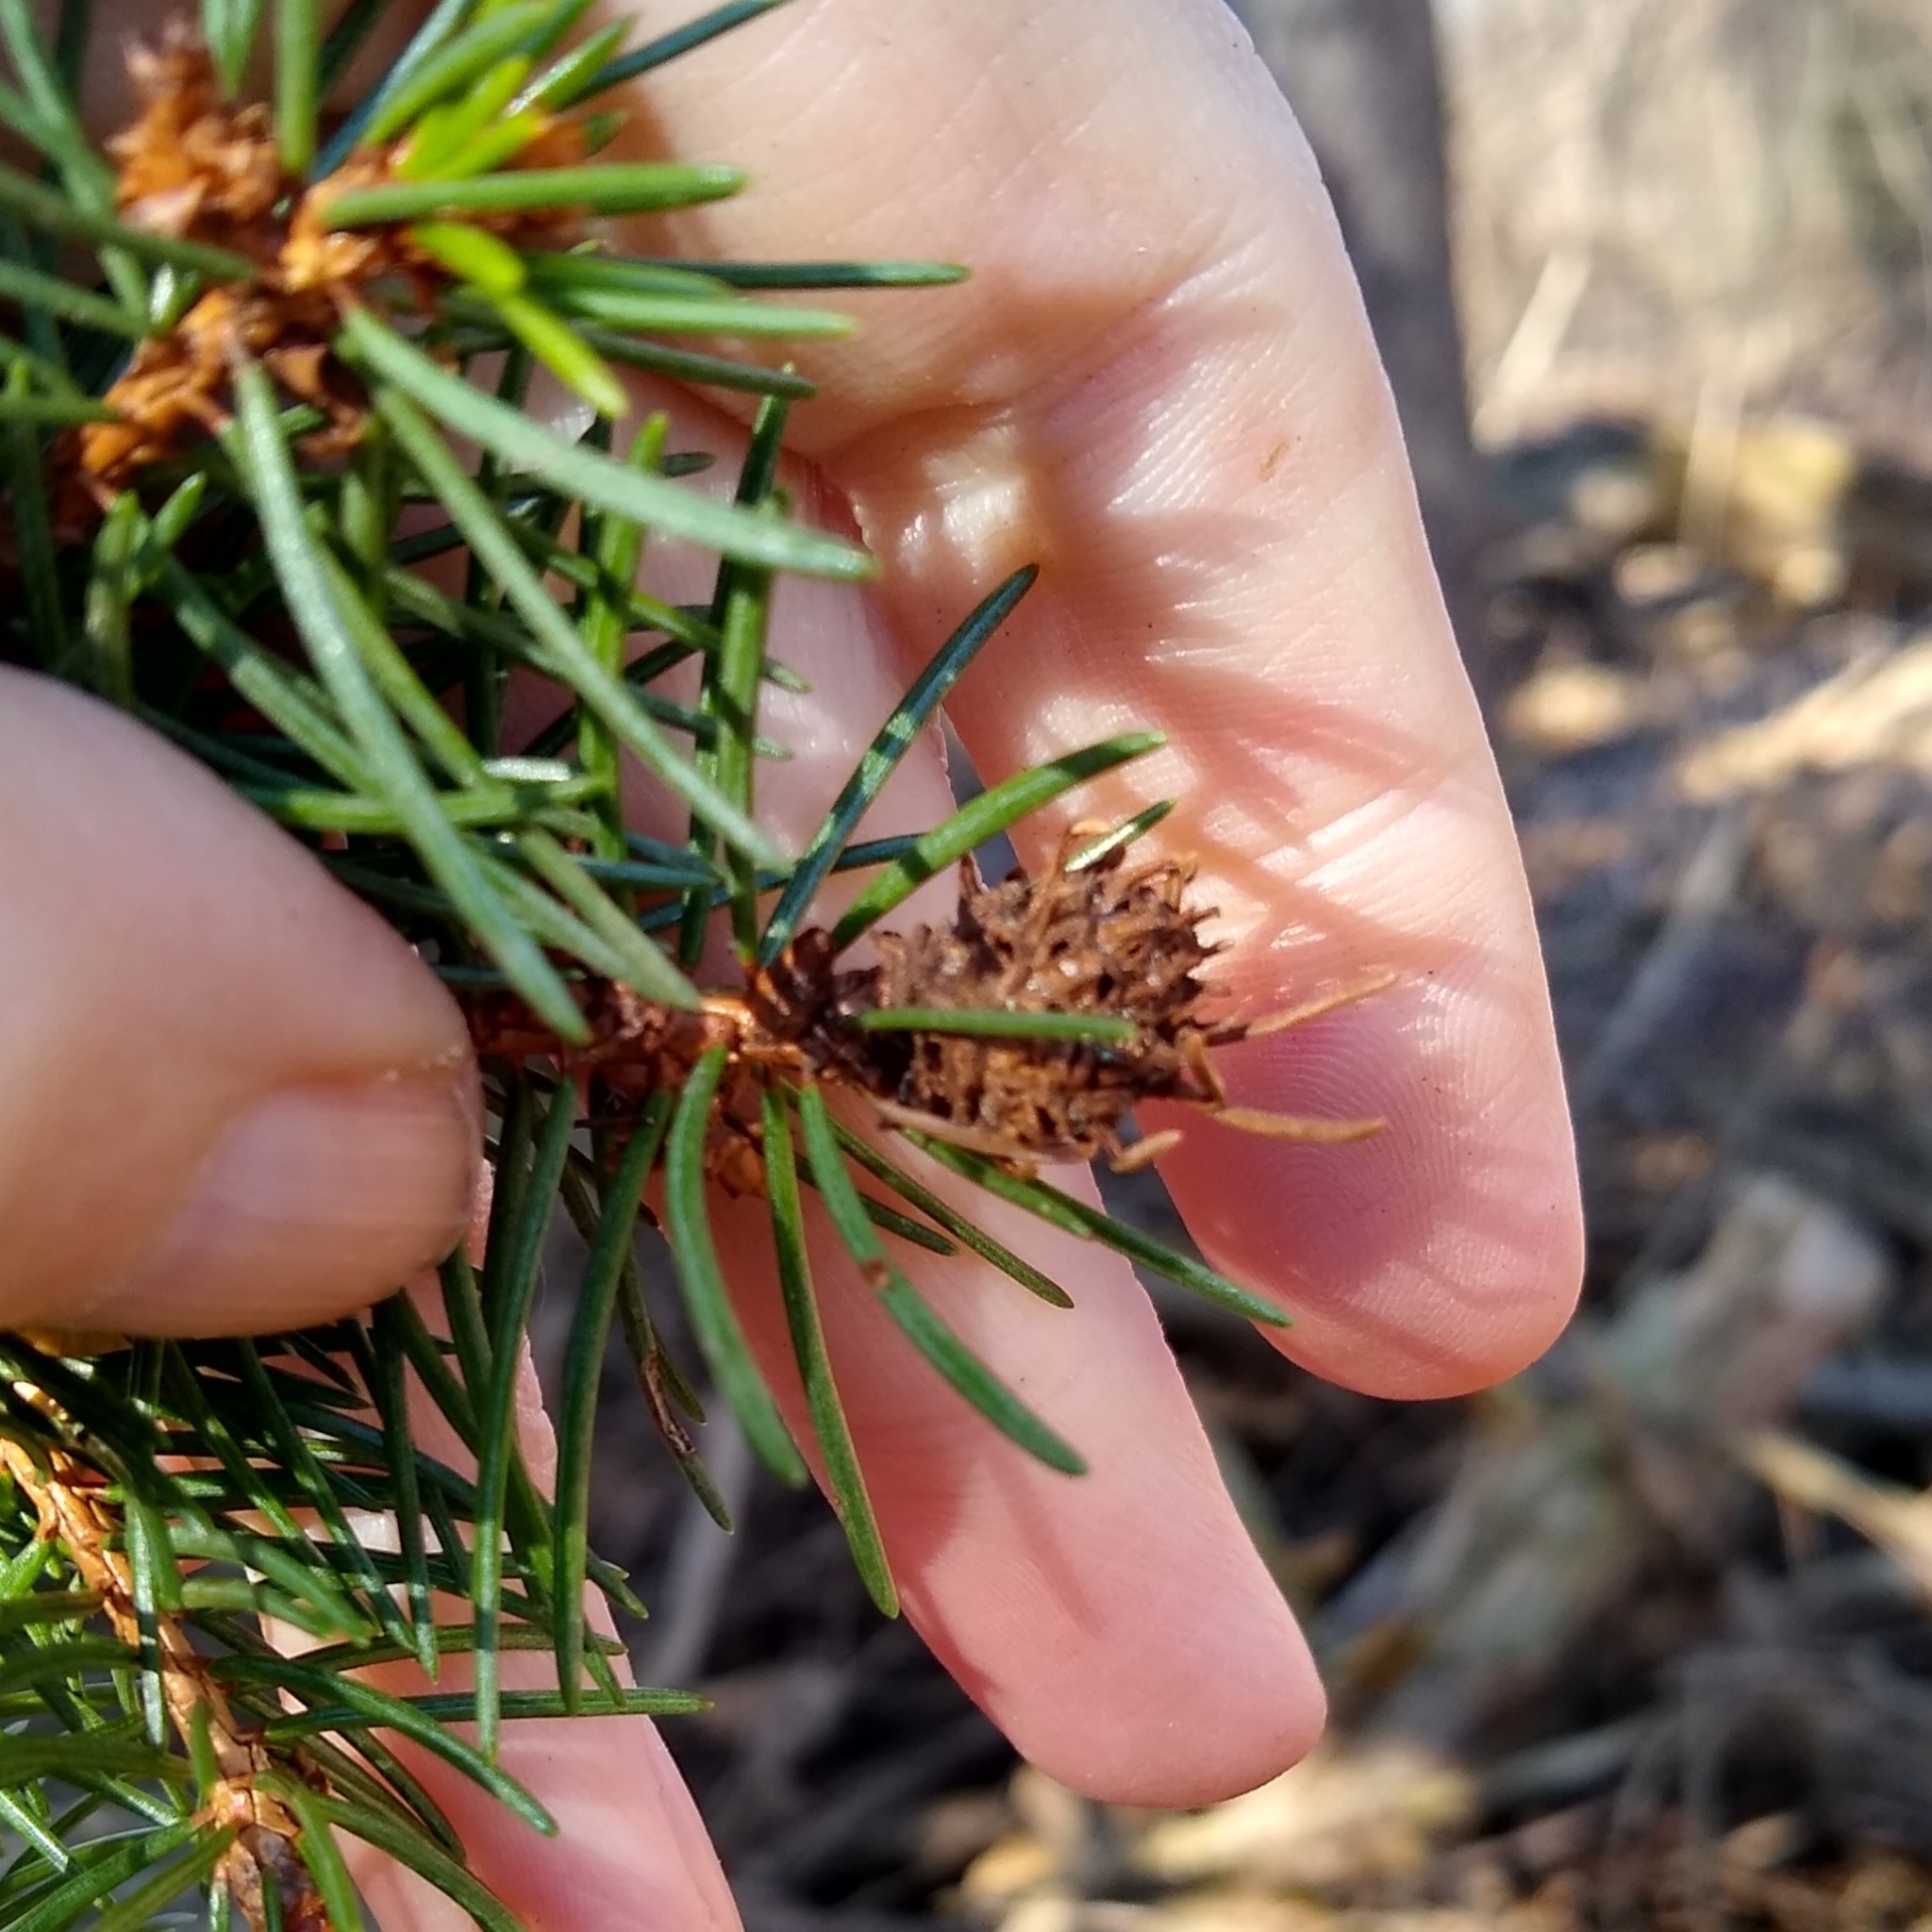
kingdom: Animalia
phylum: Arthropoda
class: Insecta
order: Hemiptera
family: Adelgidae
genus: Adelges
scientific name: Adelges abietis
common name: Eastern spruce gall adelgid
